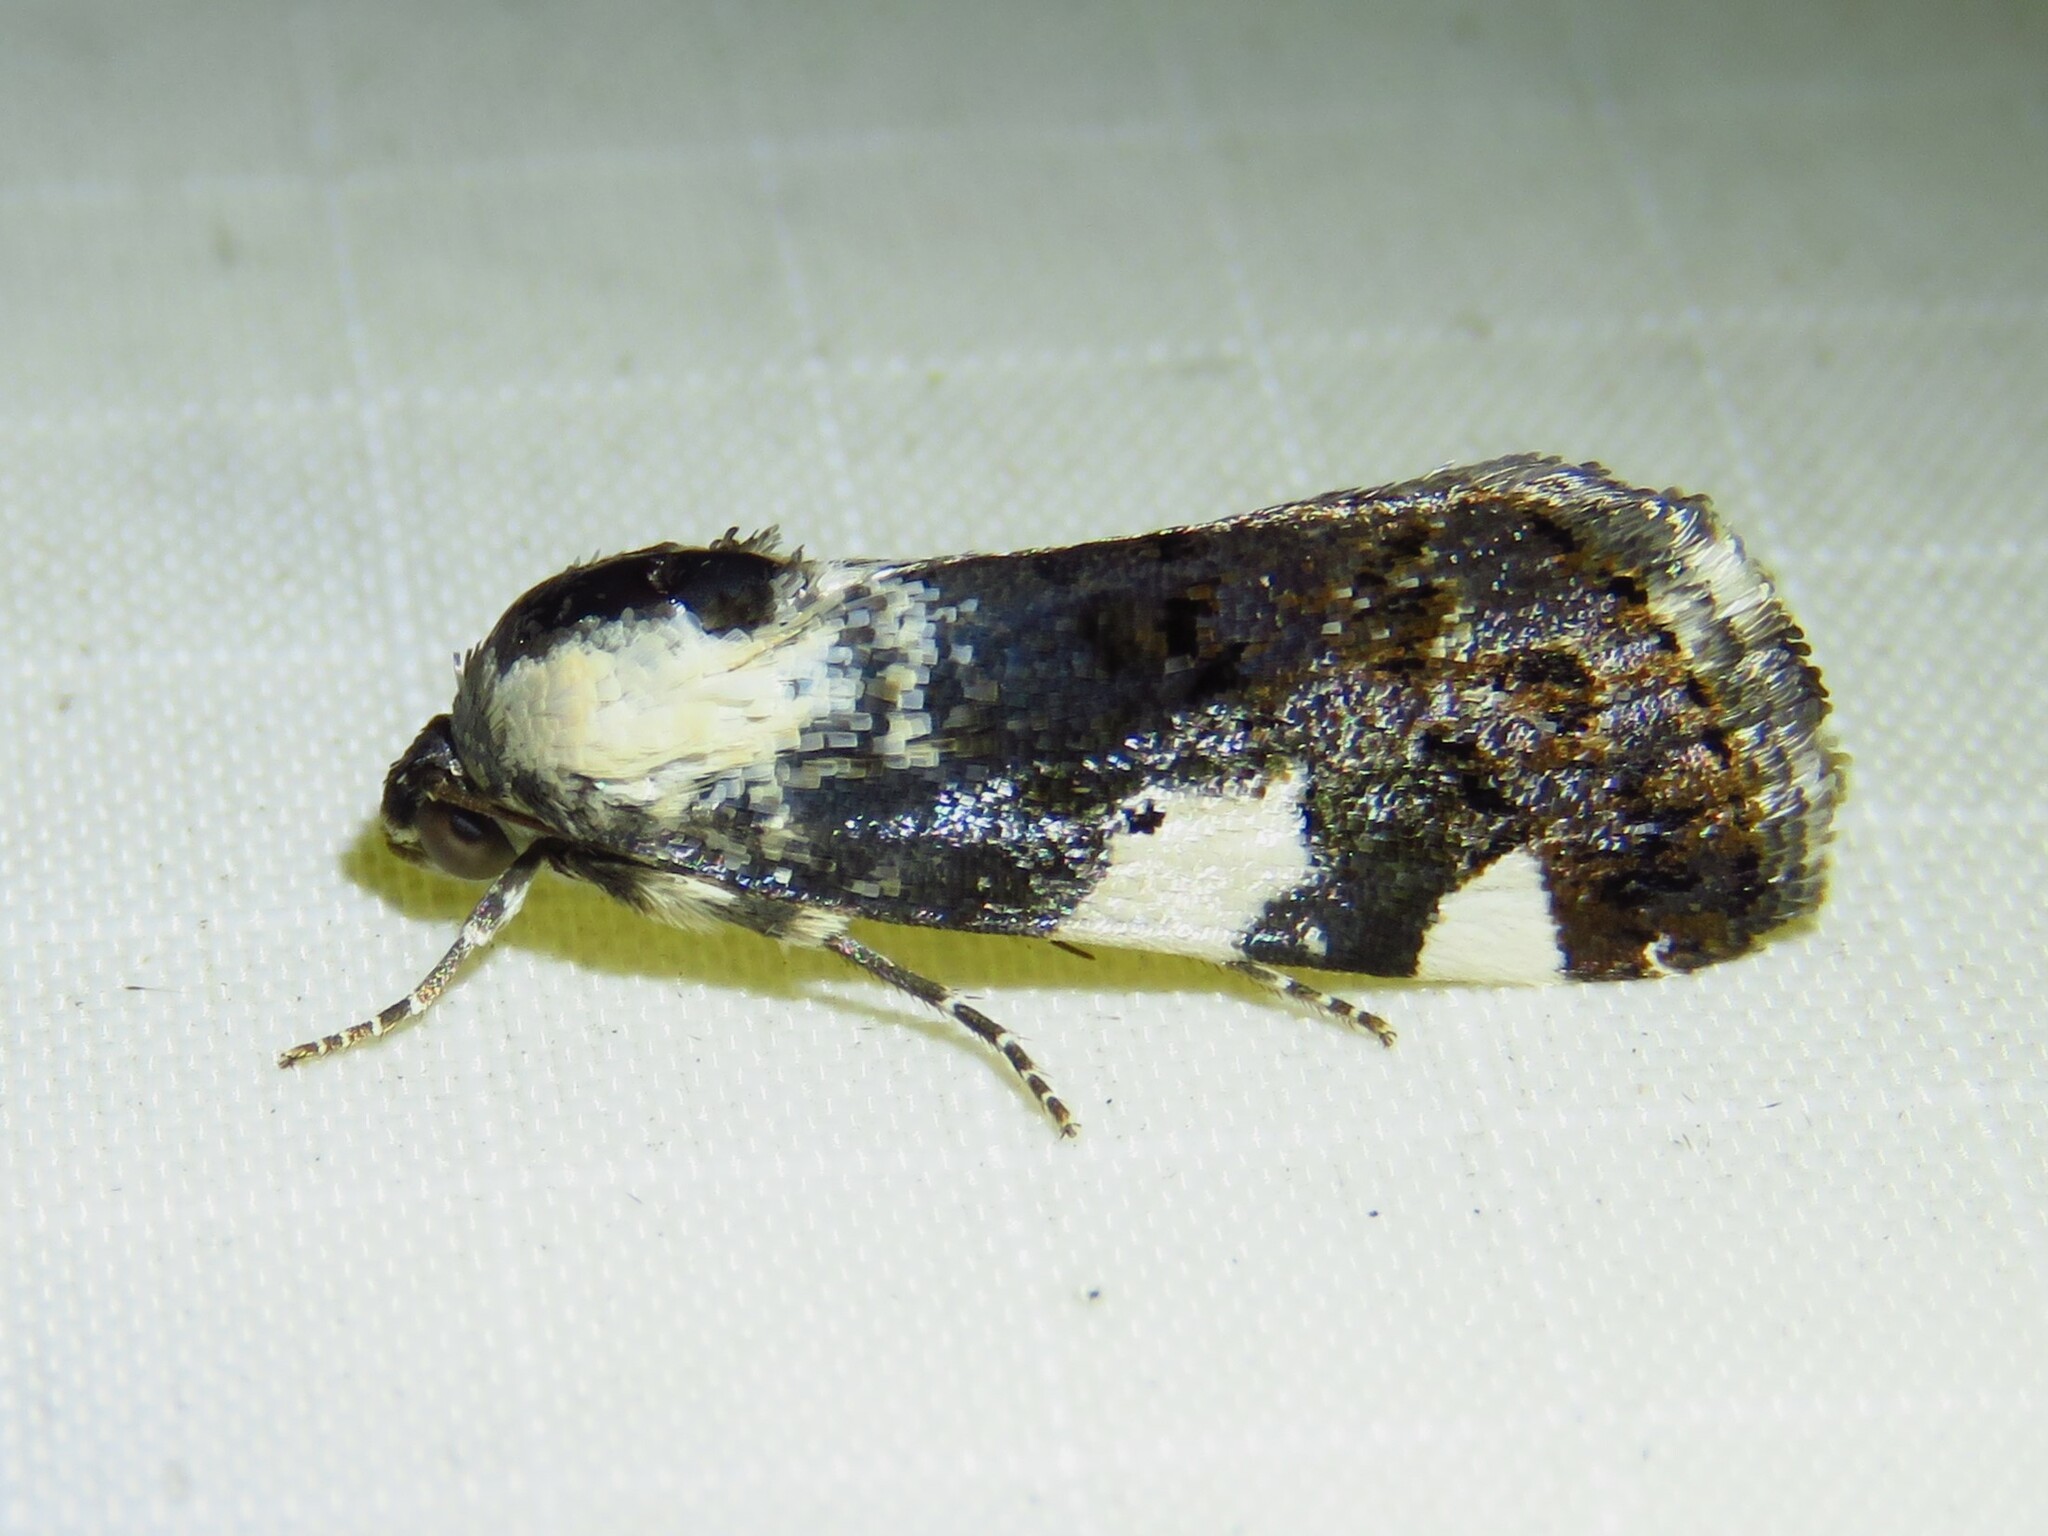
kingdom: Animalia
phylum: Arthropoda
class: Insecta
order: Lepidoptera
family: Noctuidae
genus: Acontia
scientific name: Acontia aprica
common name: Nun
